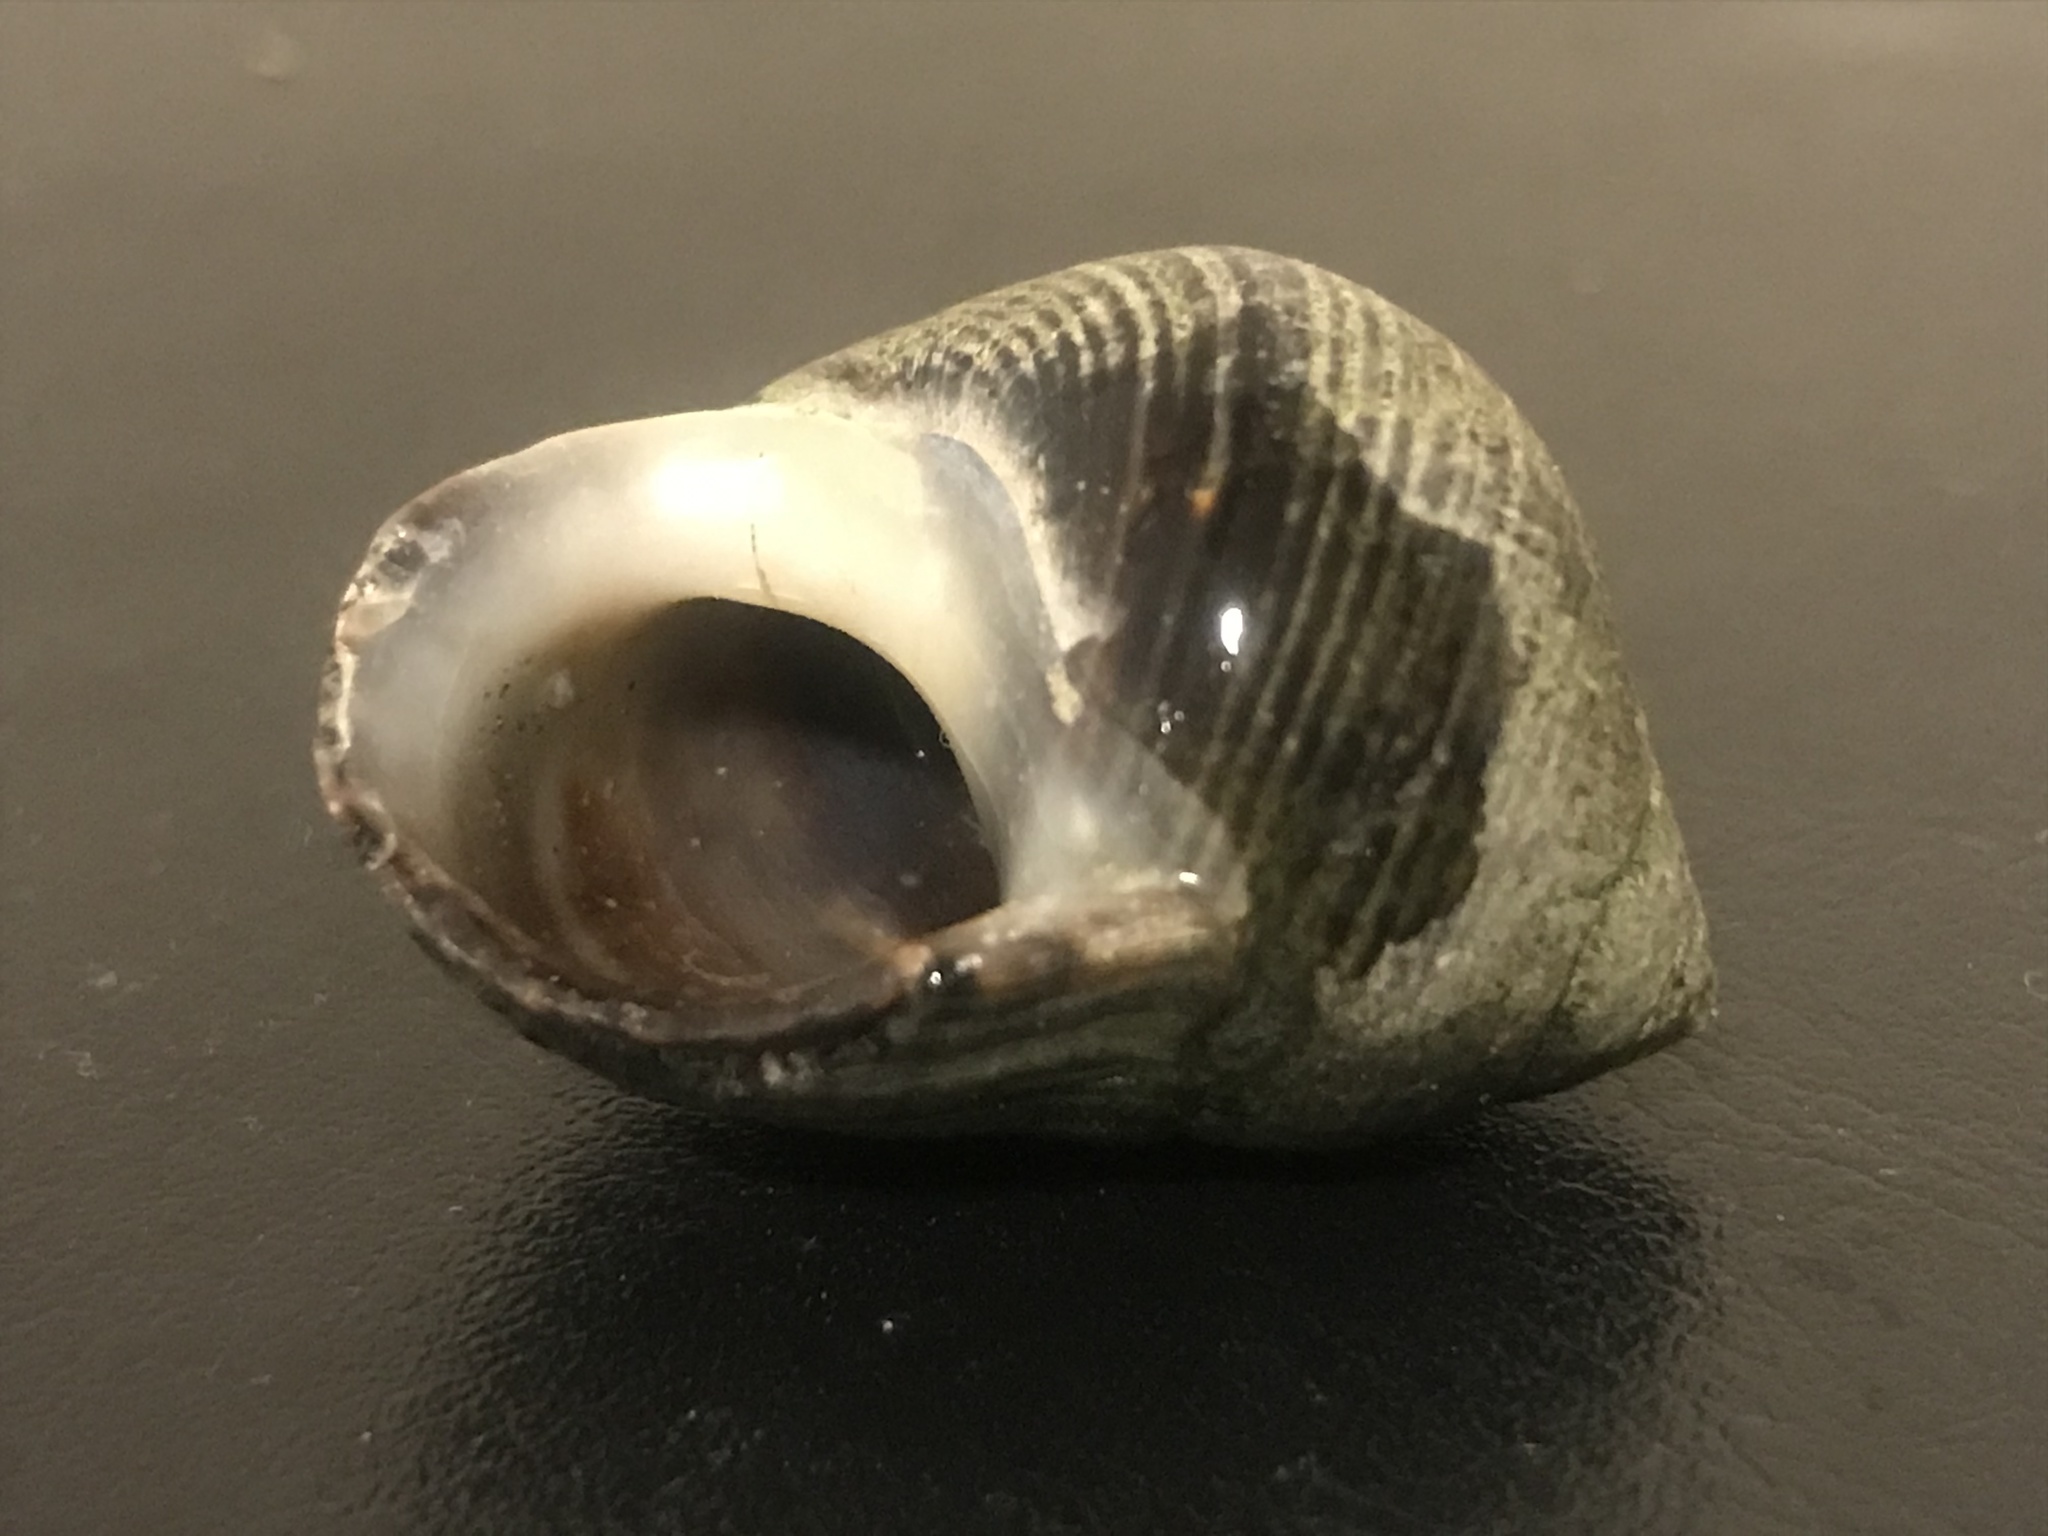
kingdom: Animalia
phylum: Mollusca
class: Gastropoda
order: Littorinimorpha
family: Littorinidae
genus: Littorina
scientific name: Littorina littorea
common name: Common periwinkle
